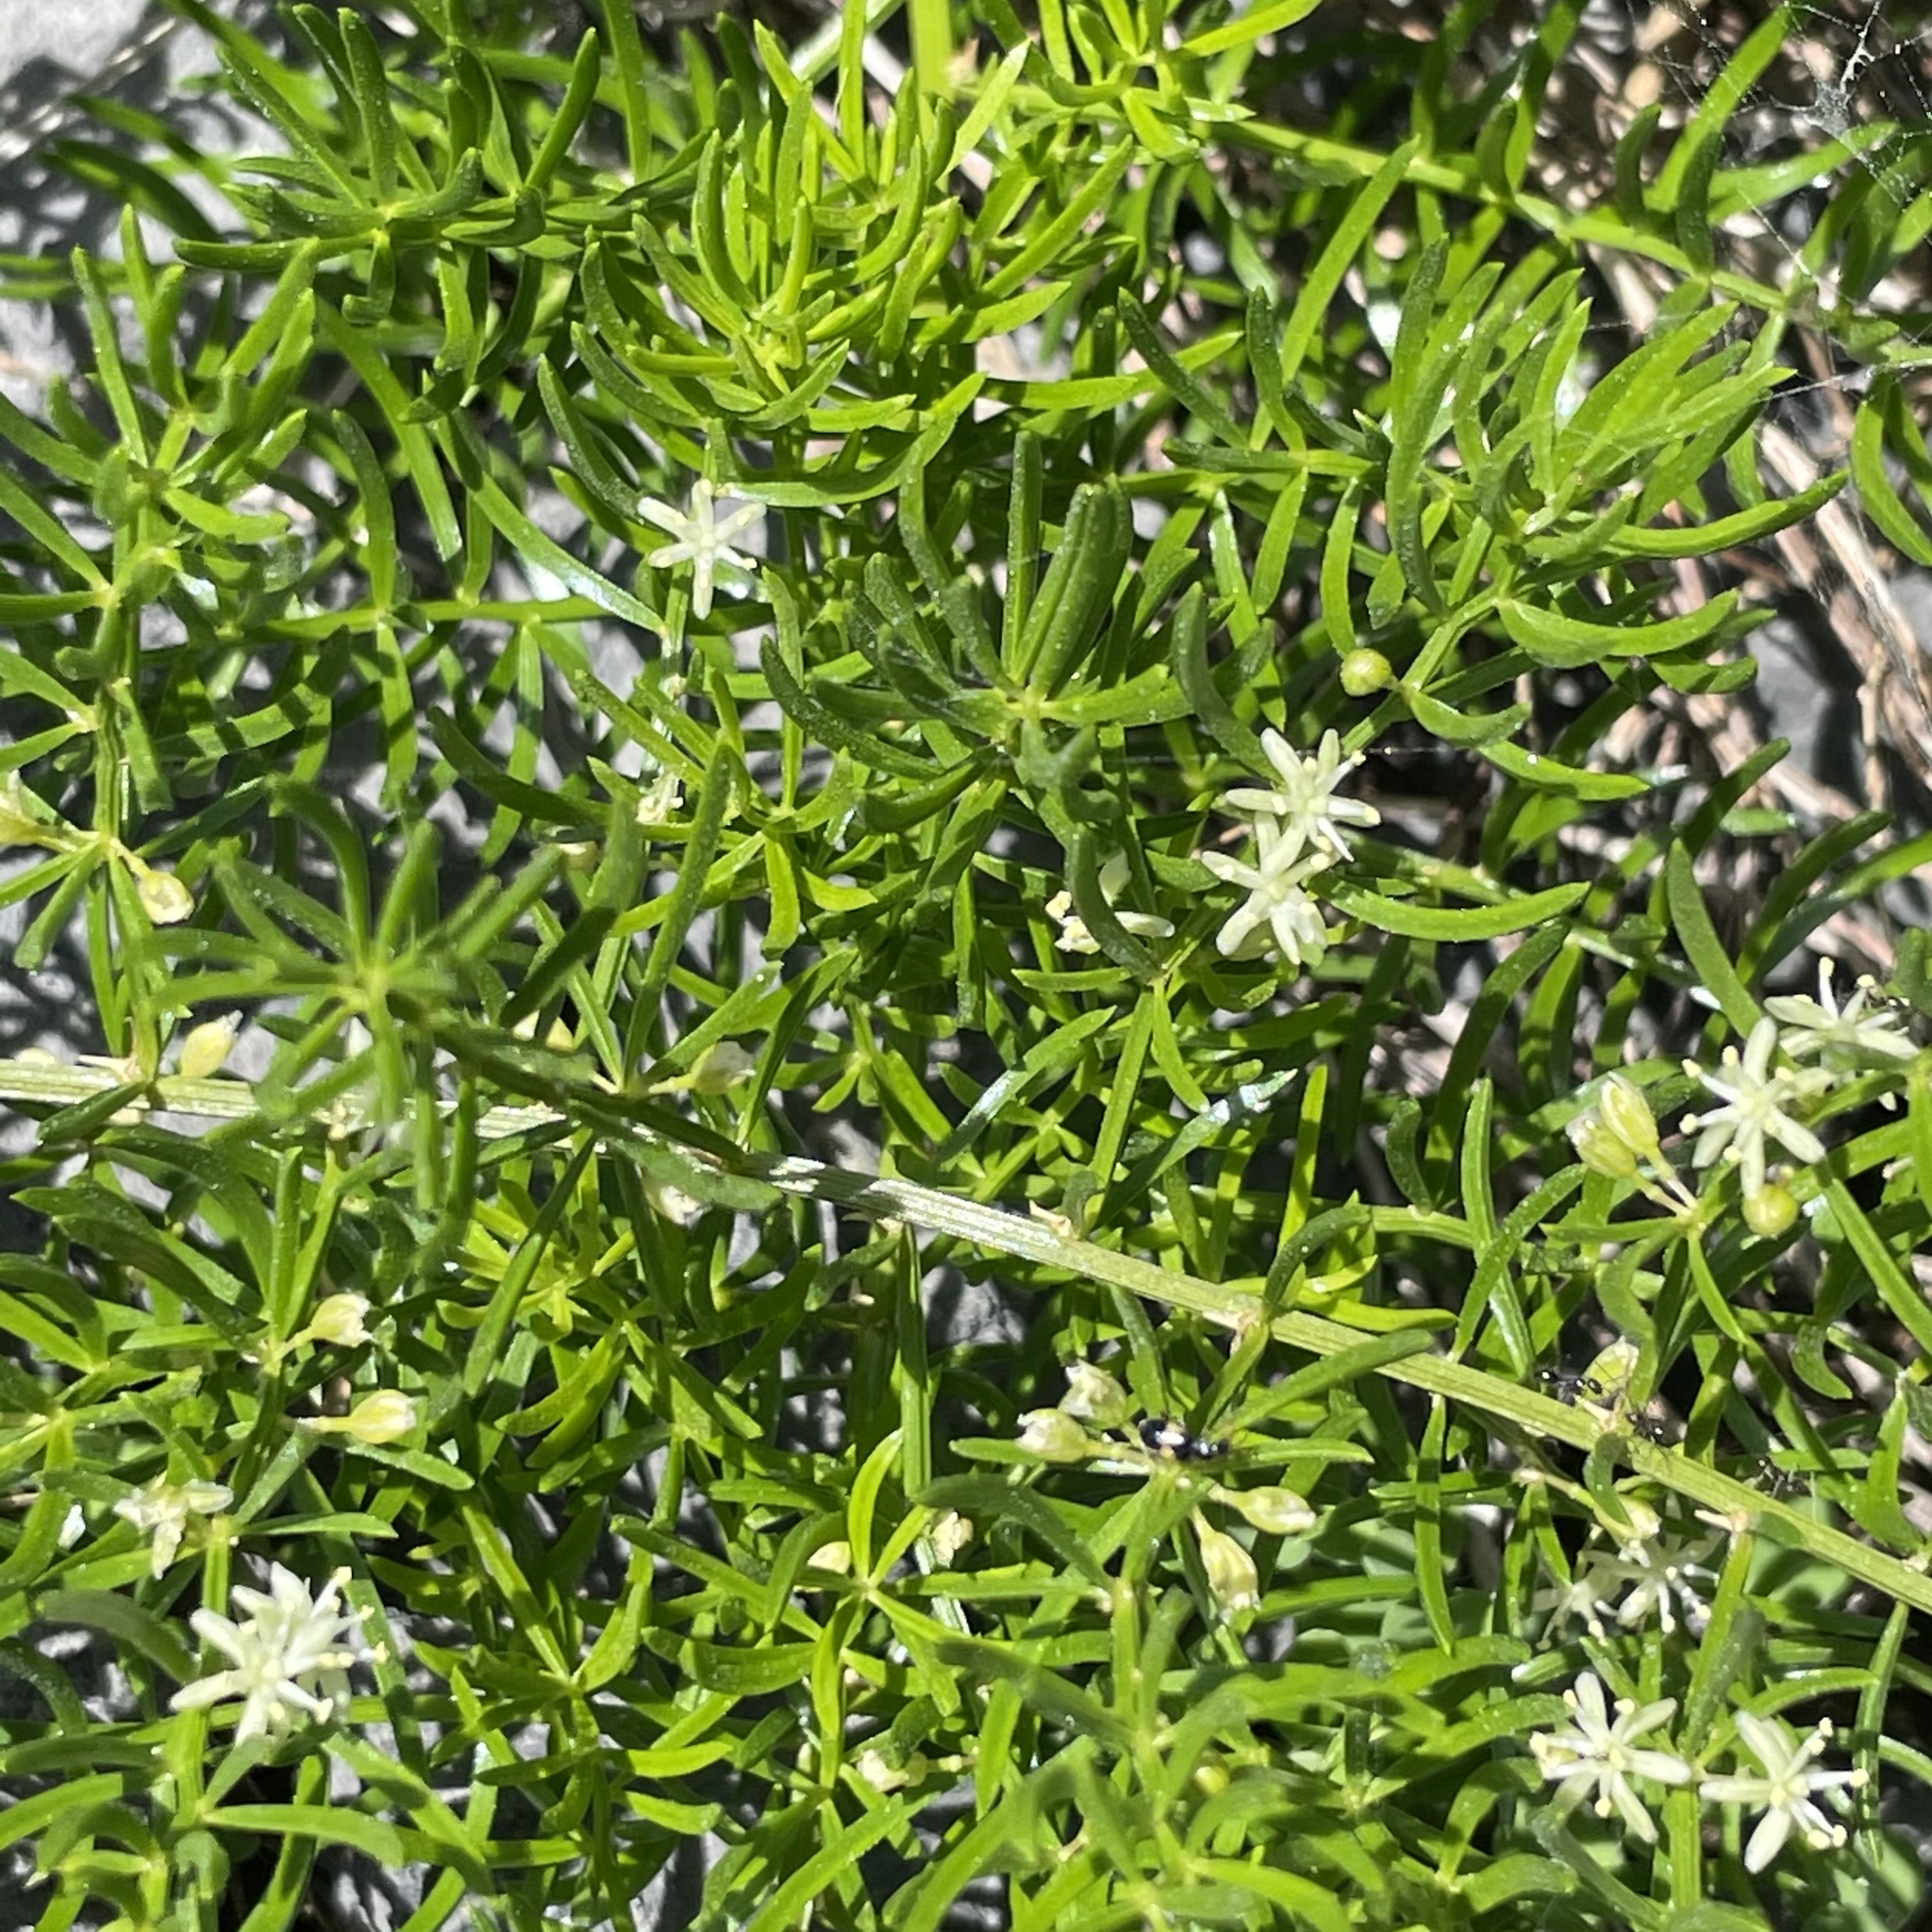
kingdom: Plantae
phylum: Tracheophyta
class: Liliopsida
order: Asparagales
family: Asparagaceae
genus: Asparagus
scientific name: Asparagus cochinchinensis
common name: Chinese asparagus
